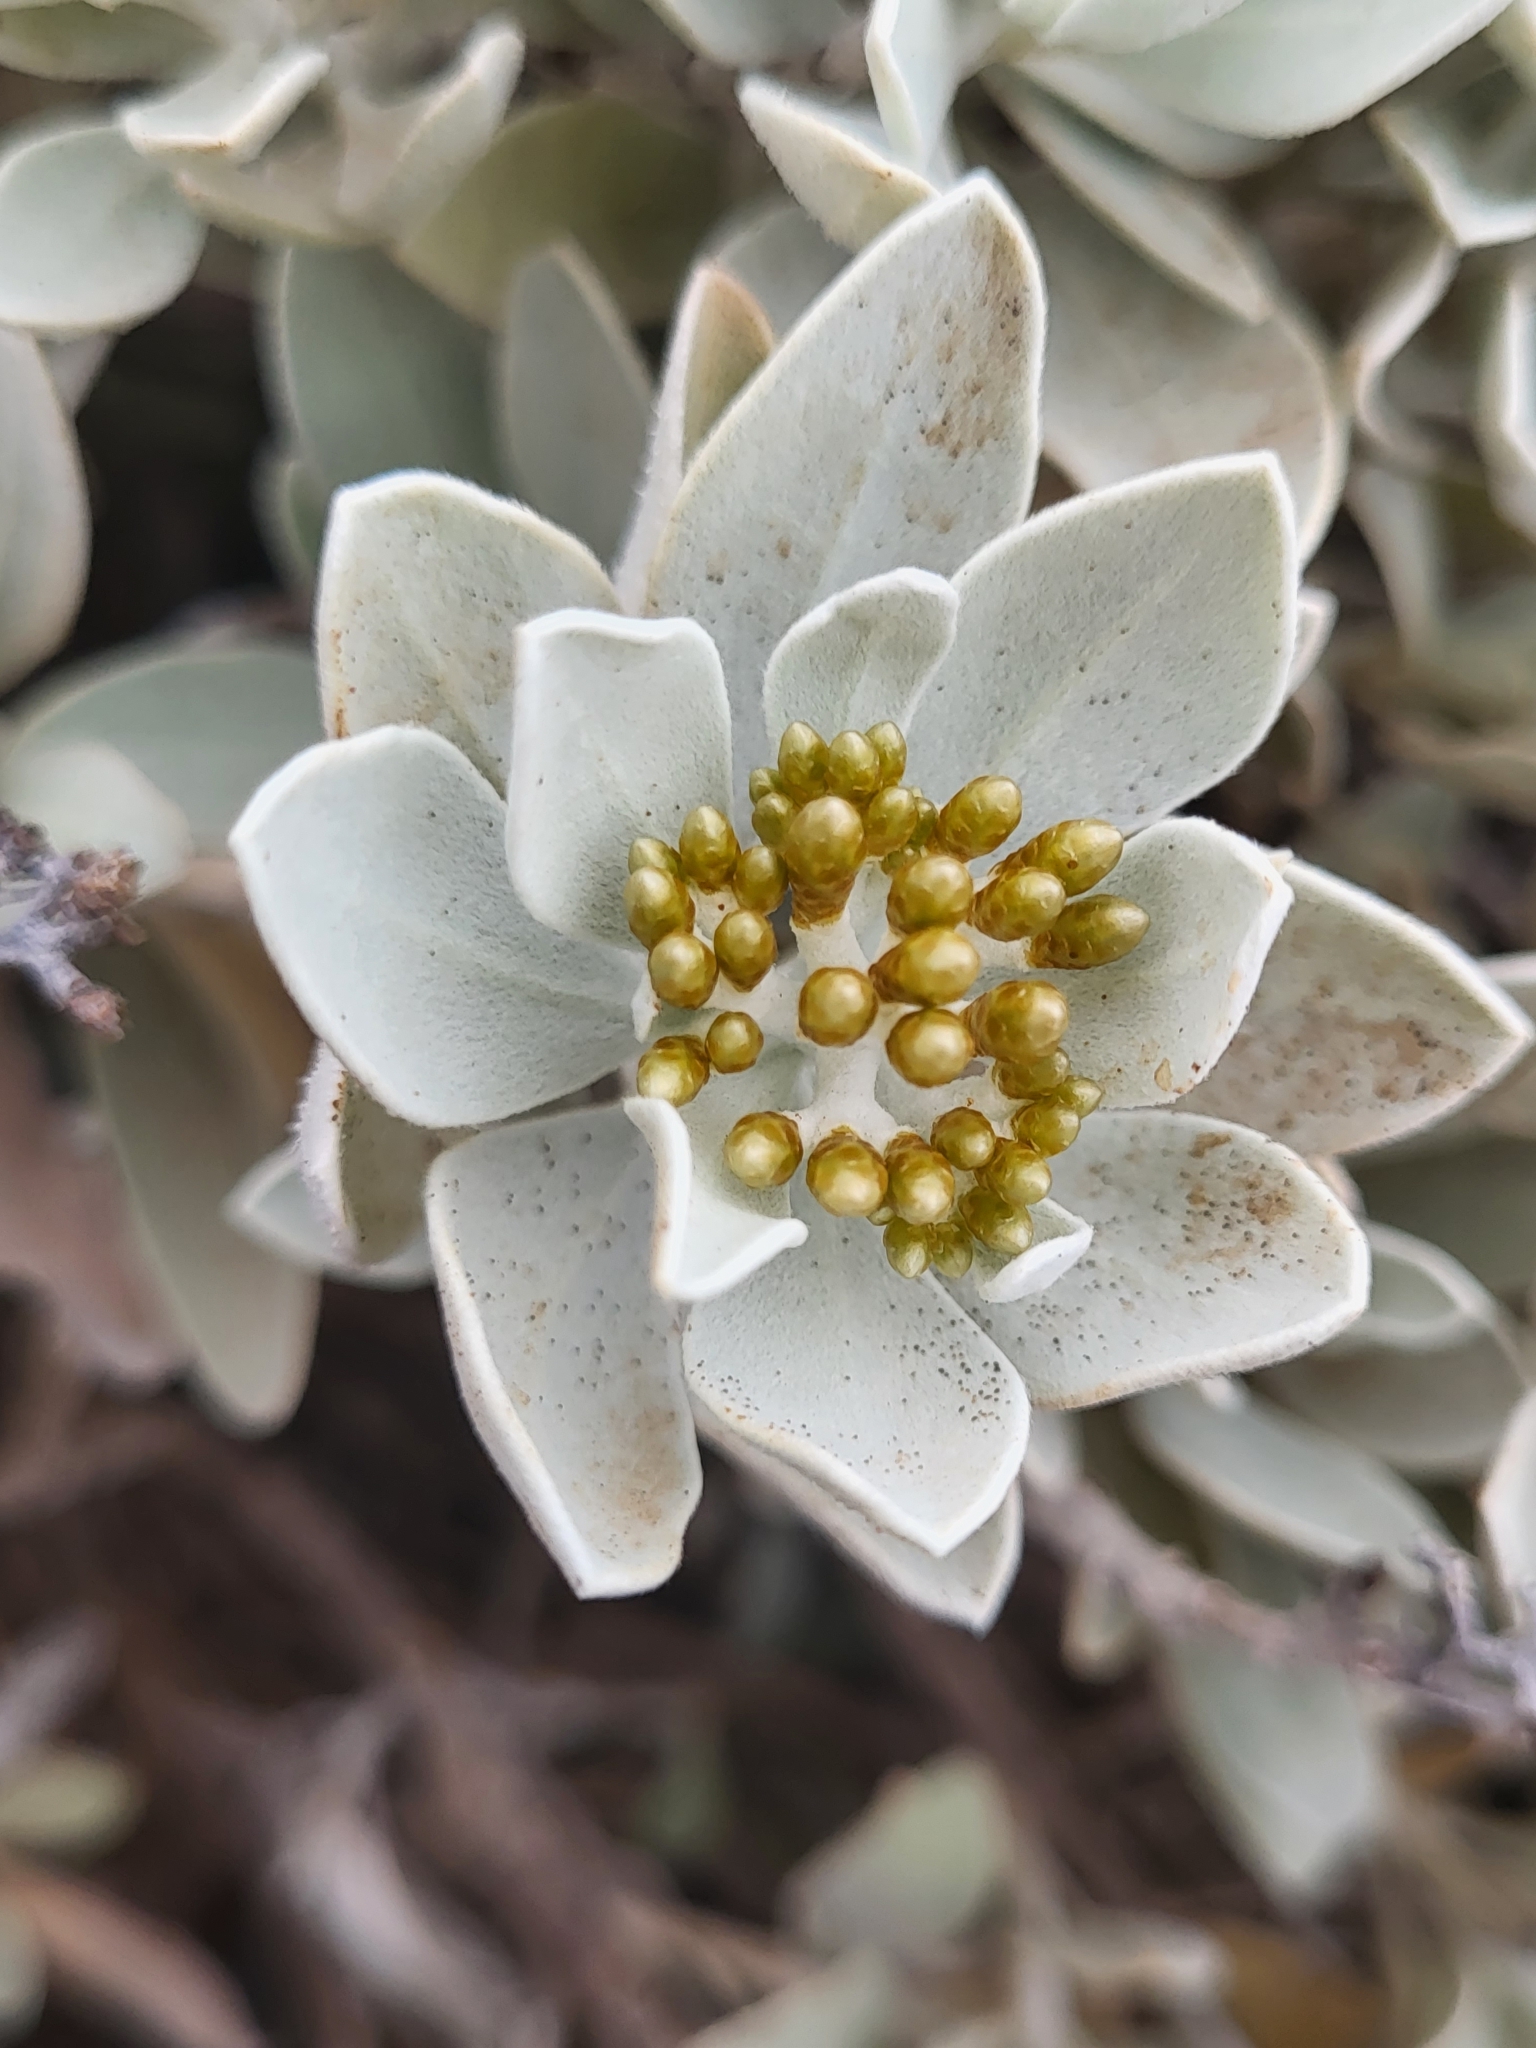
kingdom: Plantae
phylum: Tracheophyta
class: Magnoliopsida
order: Asterales
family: Asteraceae
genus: Helichrysum
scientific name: Helichrysum obconicum
